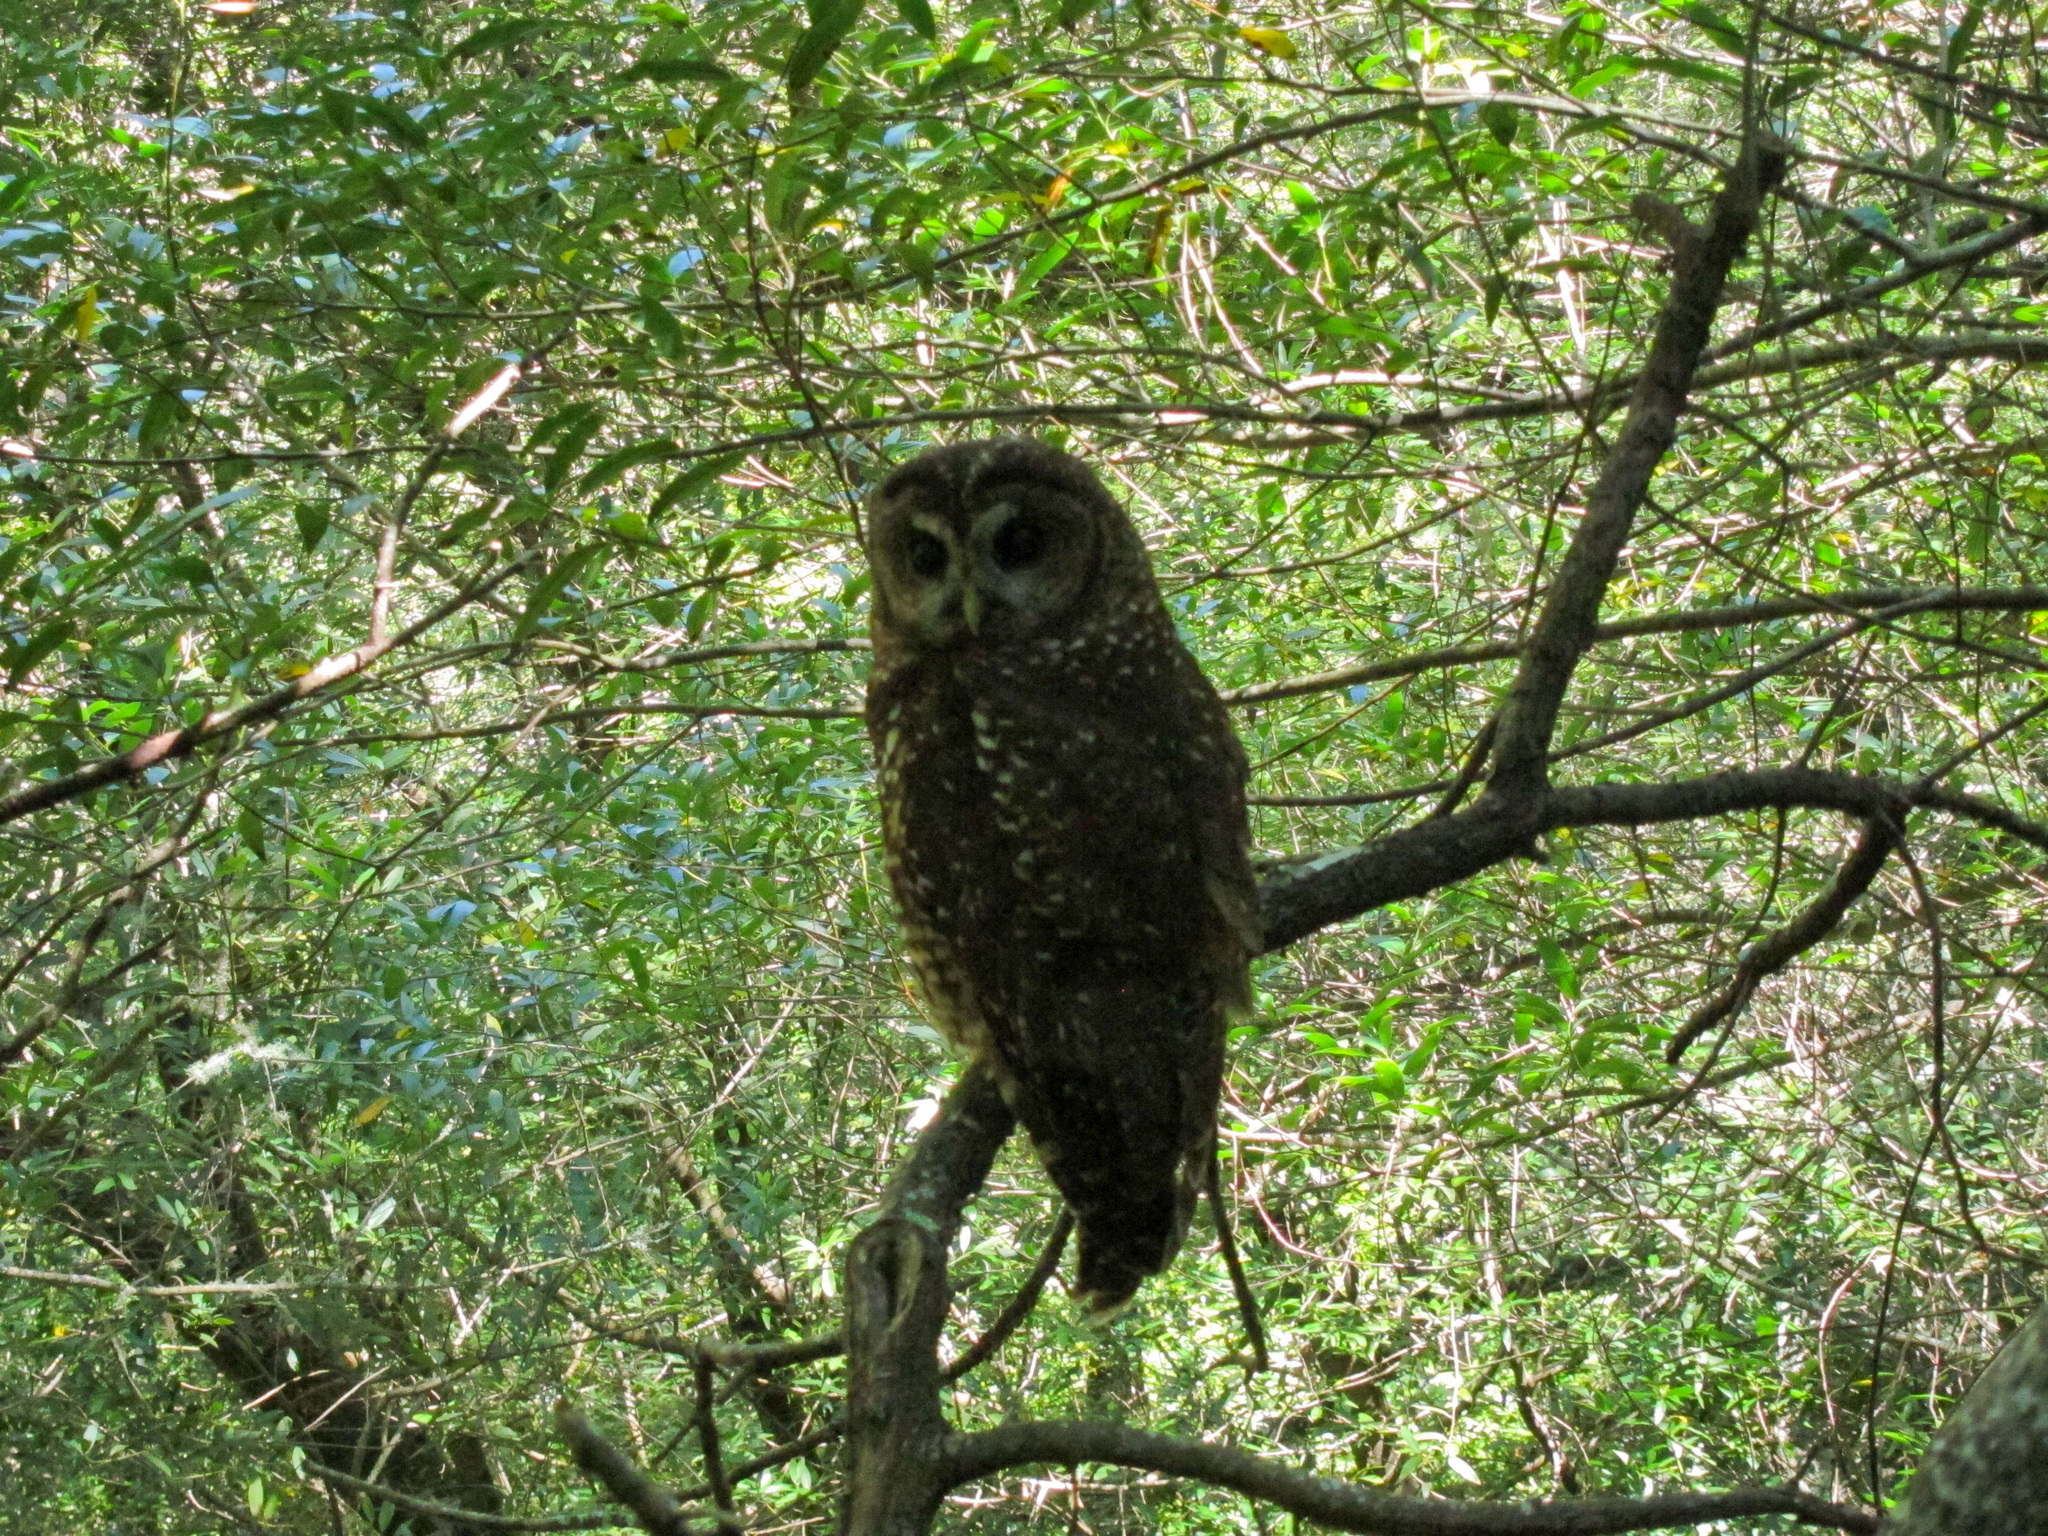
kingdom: Animalia
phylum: Chordata
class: Aves
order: Strigiformes
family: Strigidae
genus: Strix
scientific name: Strix occidentalis
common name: Spotted owl
